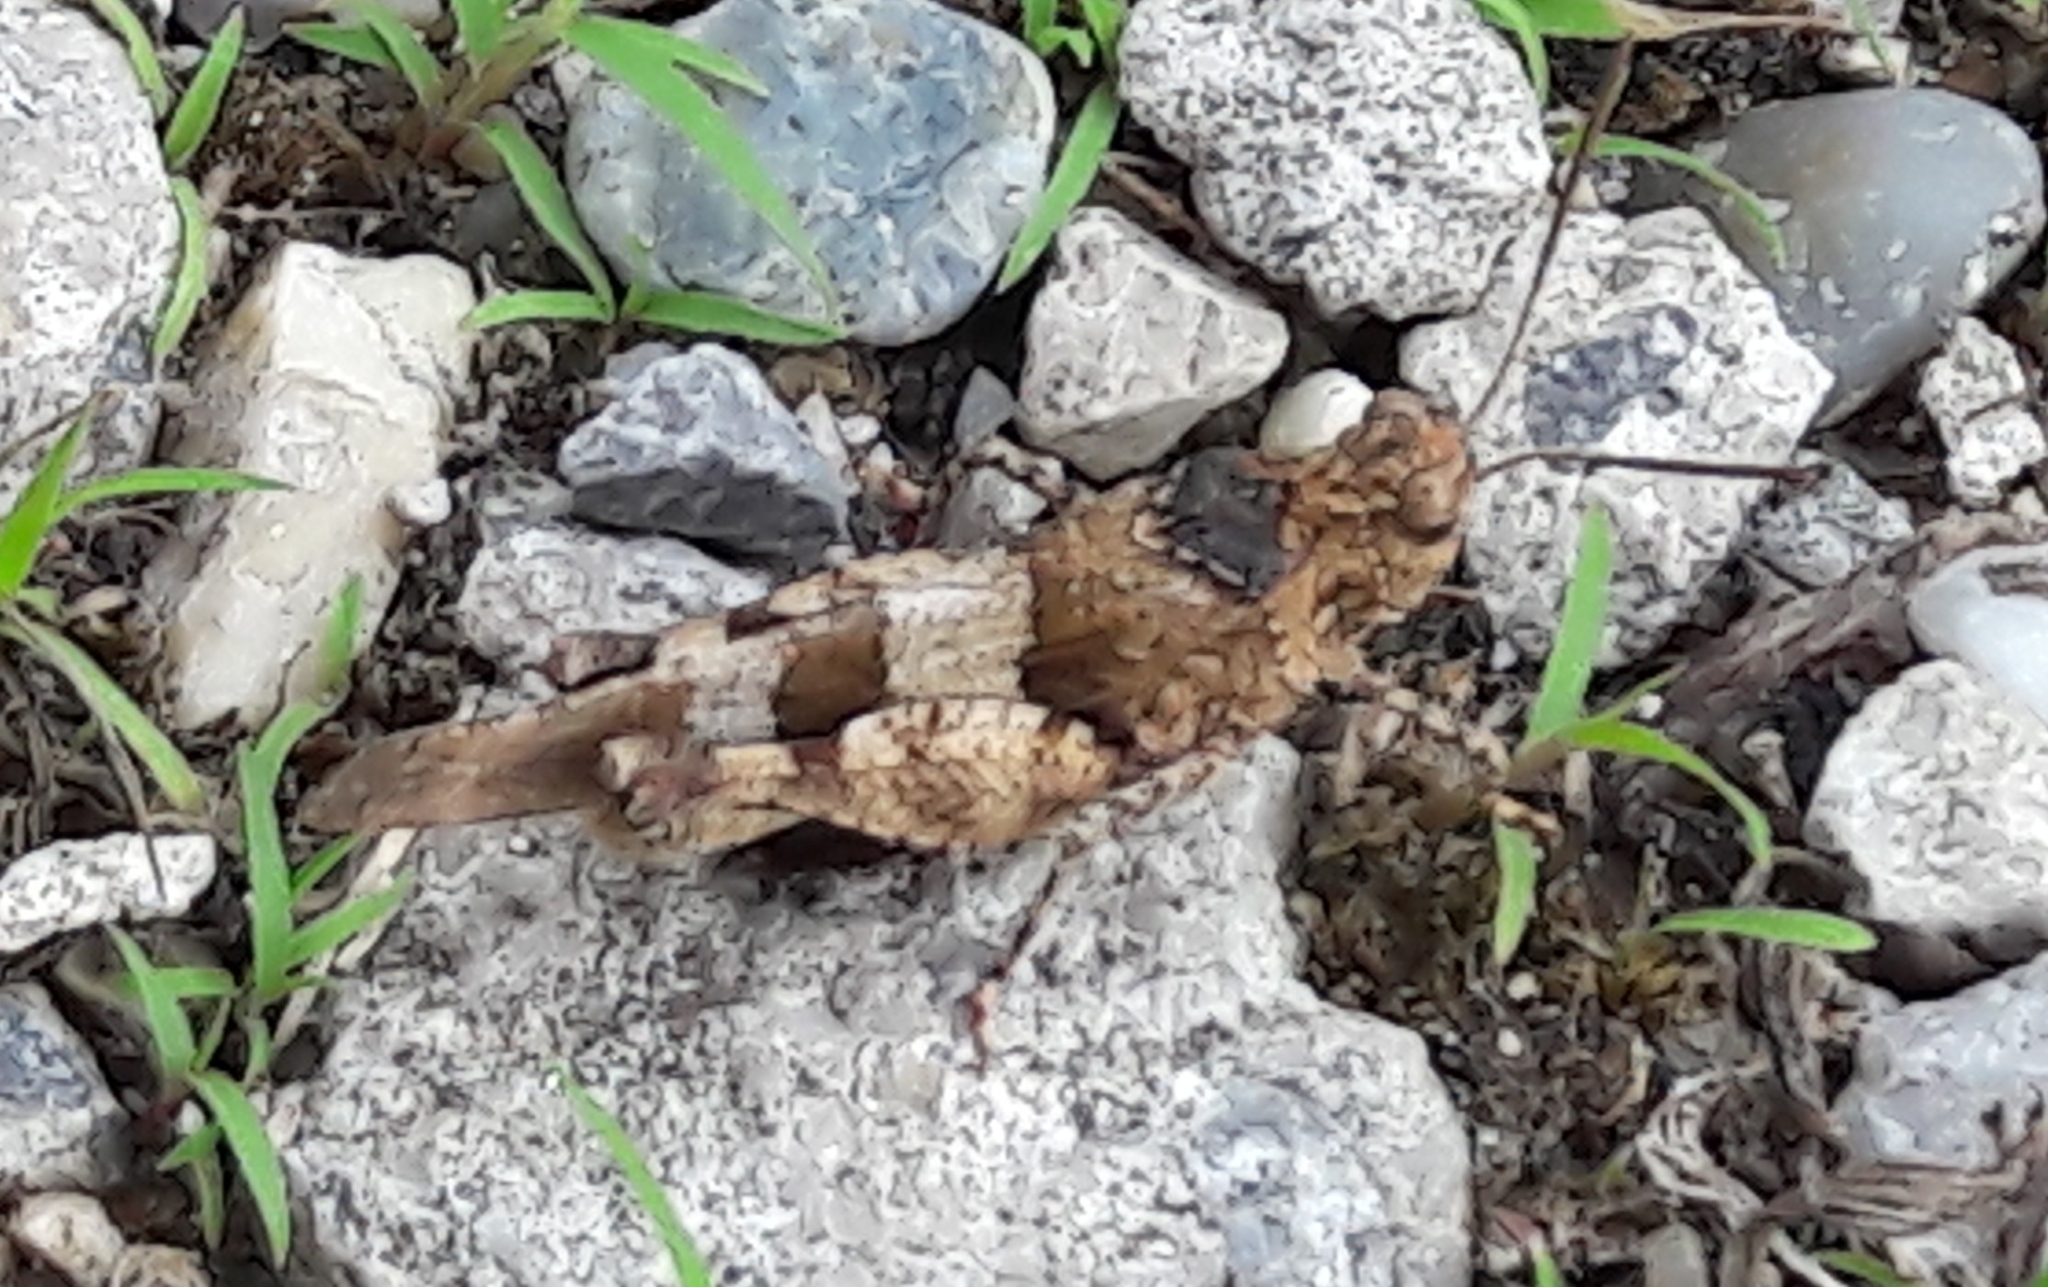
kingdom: Animalia
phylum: Arthropoda
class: Insecta
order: Orthoptera
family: Acrididae
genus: Oedipoda
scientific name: Oedipoda caerulescens
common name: Blue-winged grasshopper
